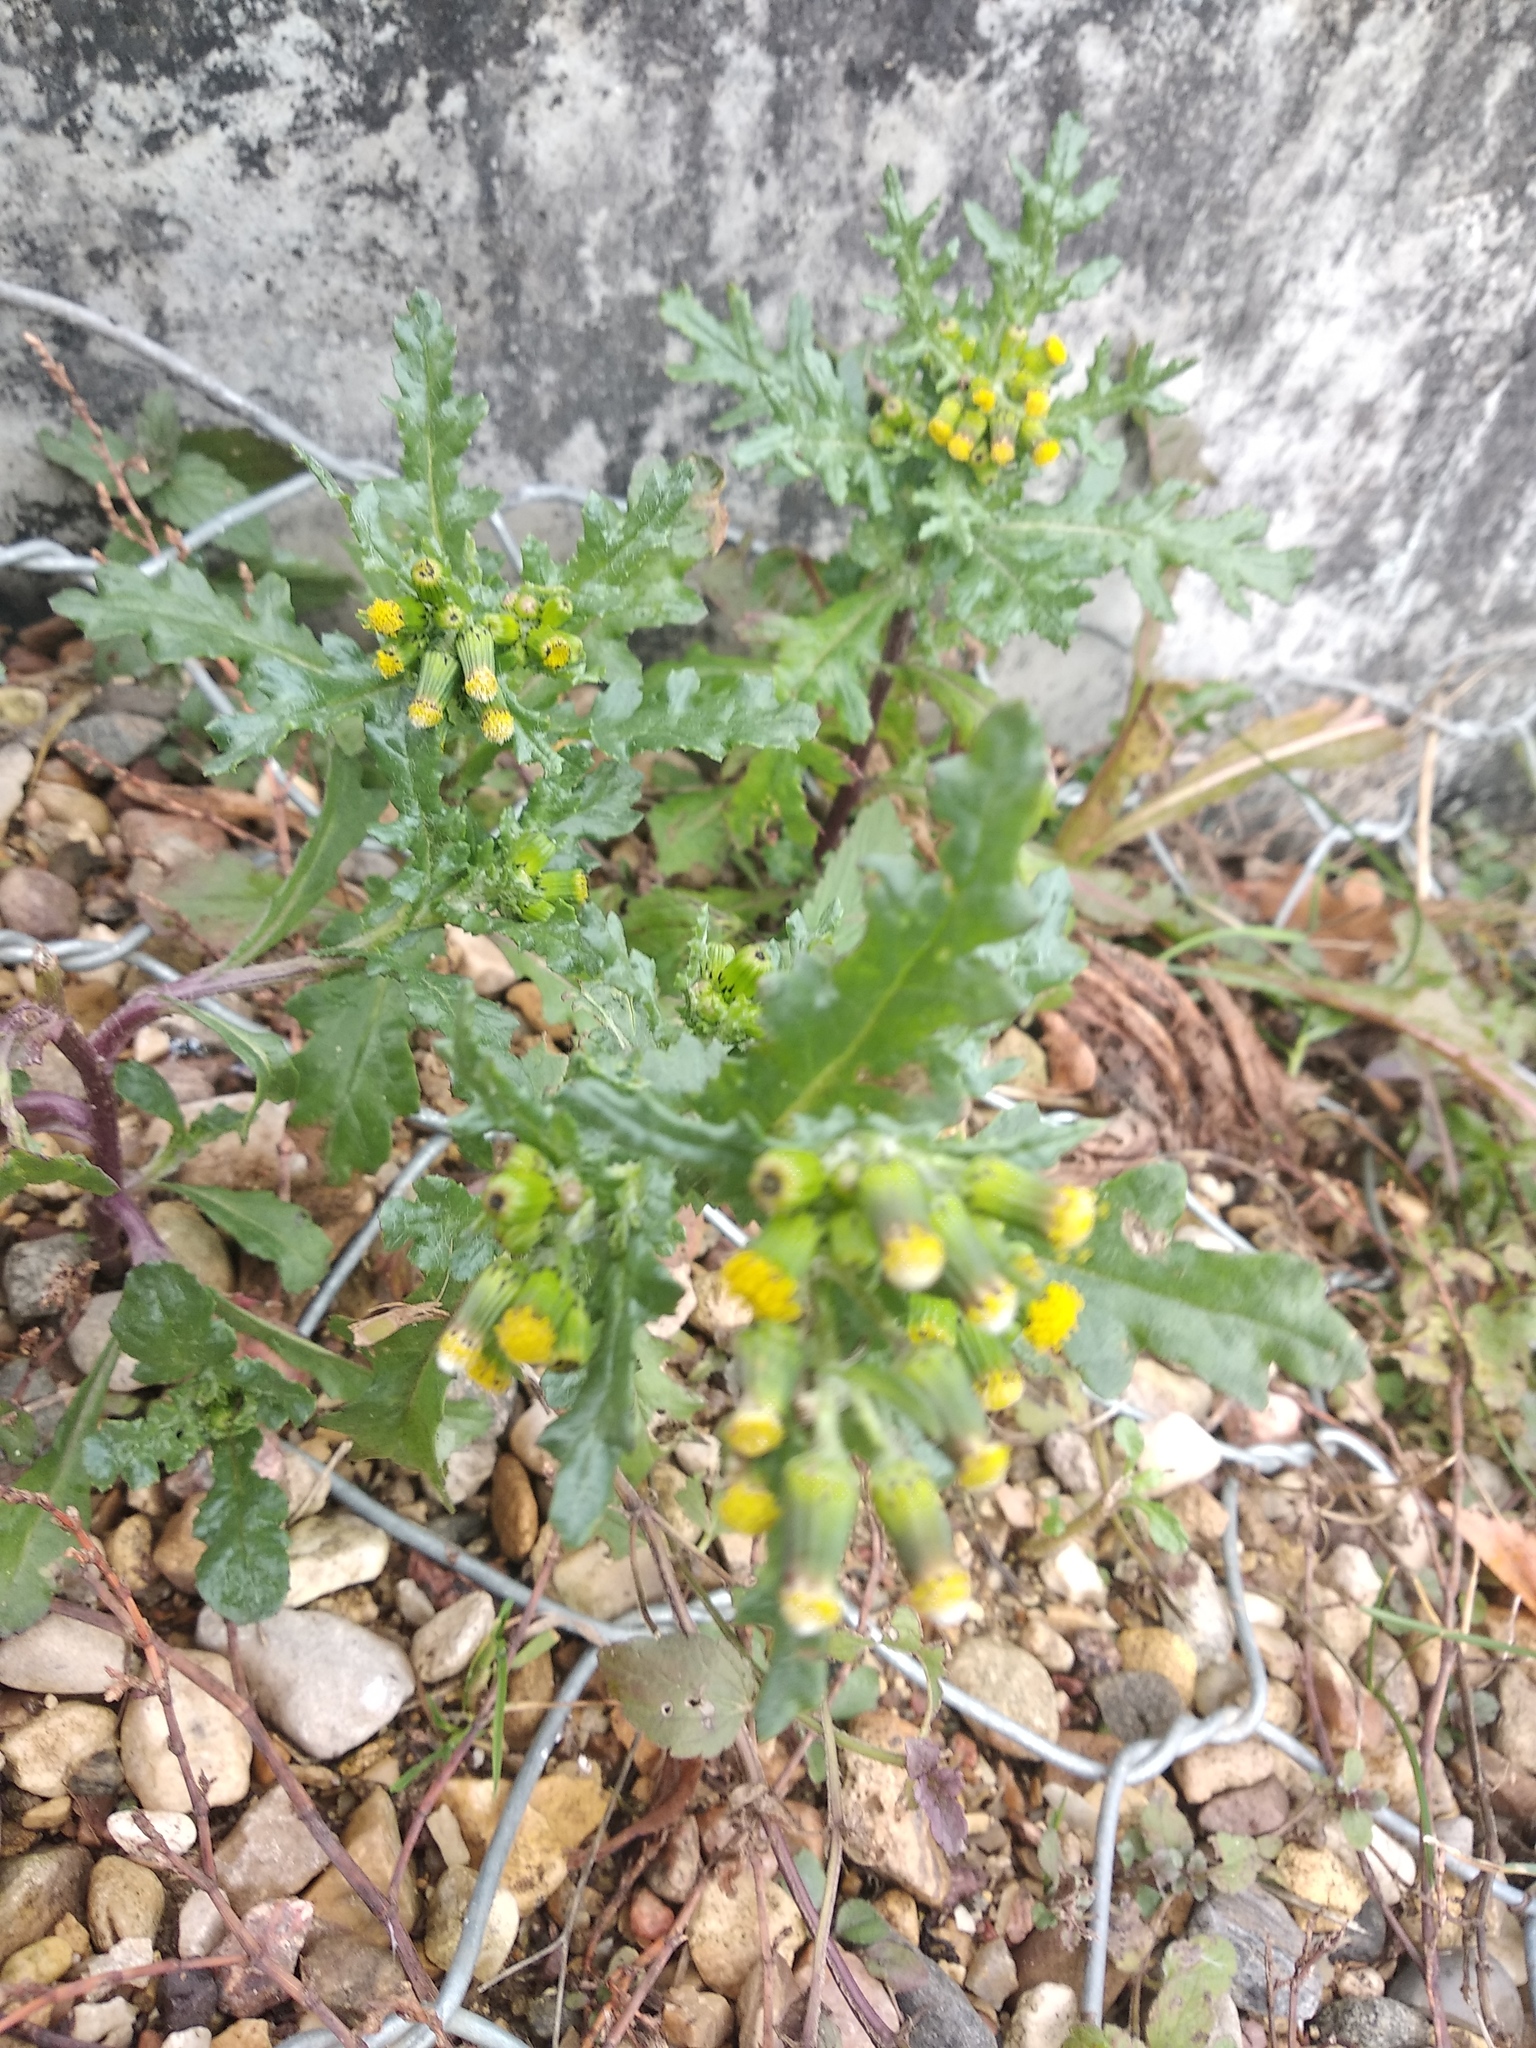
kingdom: Plantae
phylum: Tracheophyta
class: Magnoliopsida
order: Asterales
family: Asteraceae
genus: Senecio
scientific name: Senecio vulgaris
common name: Old-man-in-the-spring
